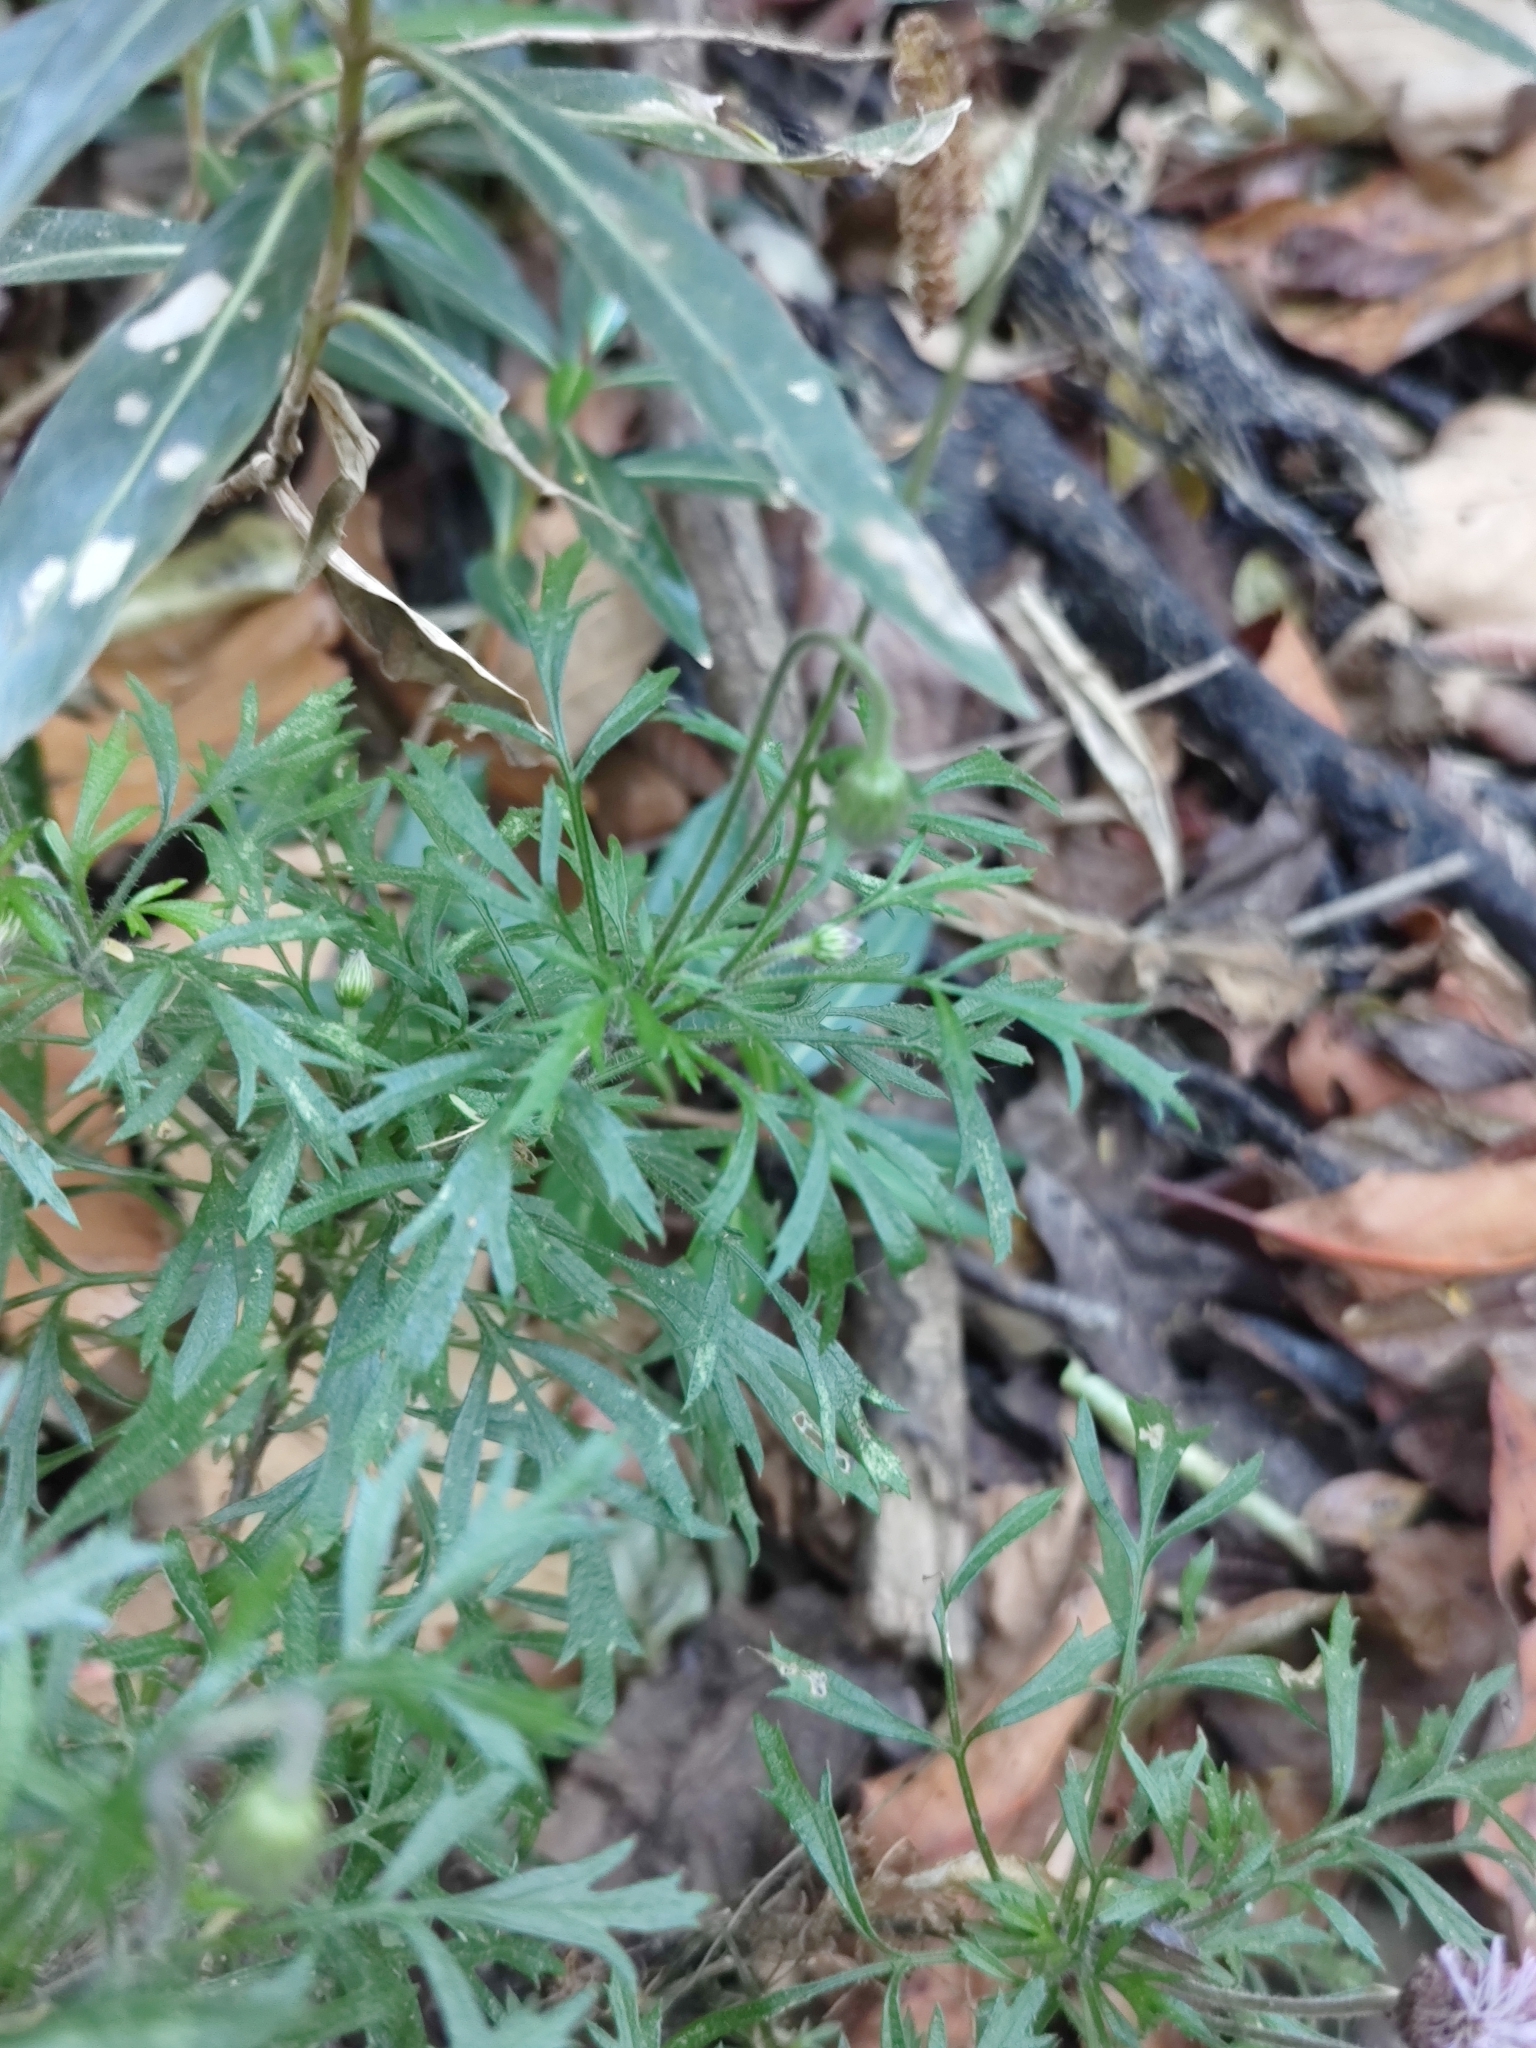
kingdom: Plantae
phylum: Tracheophyta
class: Magnoliopsida
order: Asterales
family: Asteraceae
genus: Ageratum
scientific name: Ageratum corymbosum
